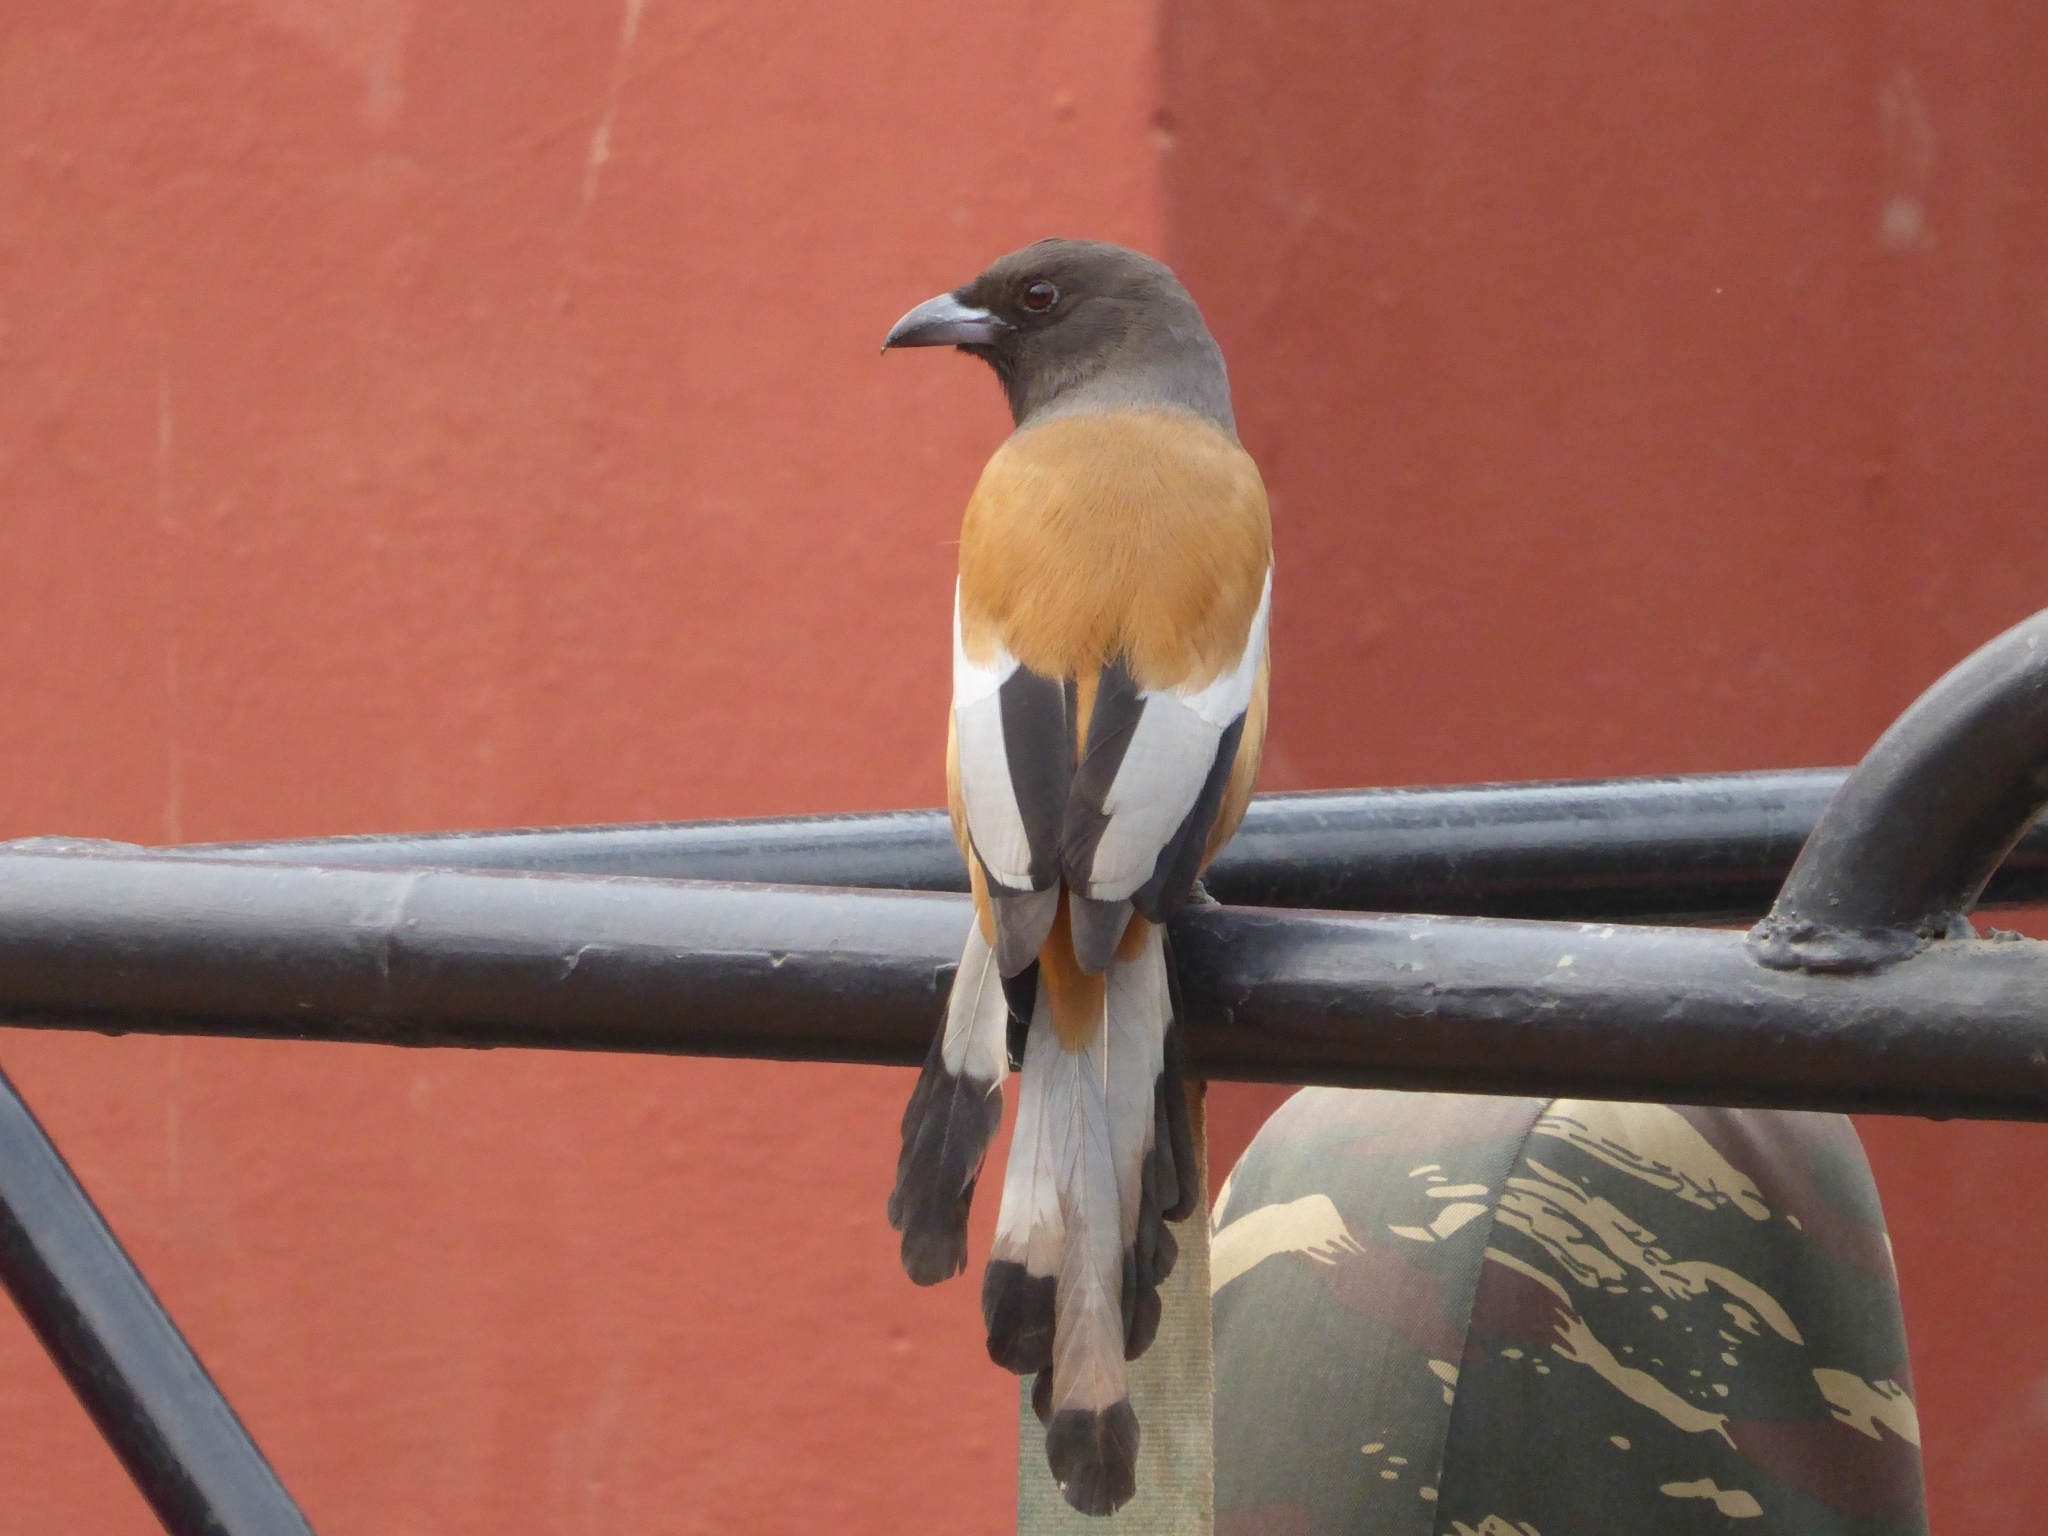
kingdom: Animalia
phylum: Chordata
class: Aves
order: Passeriformes
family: Corvidae
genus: Dendrocitta
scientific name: Dendrocitta vagabunda
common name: Rufous treepie
